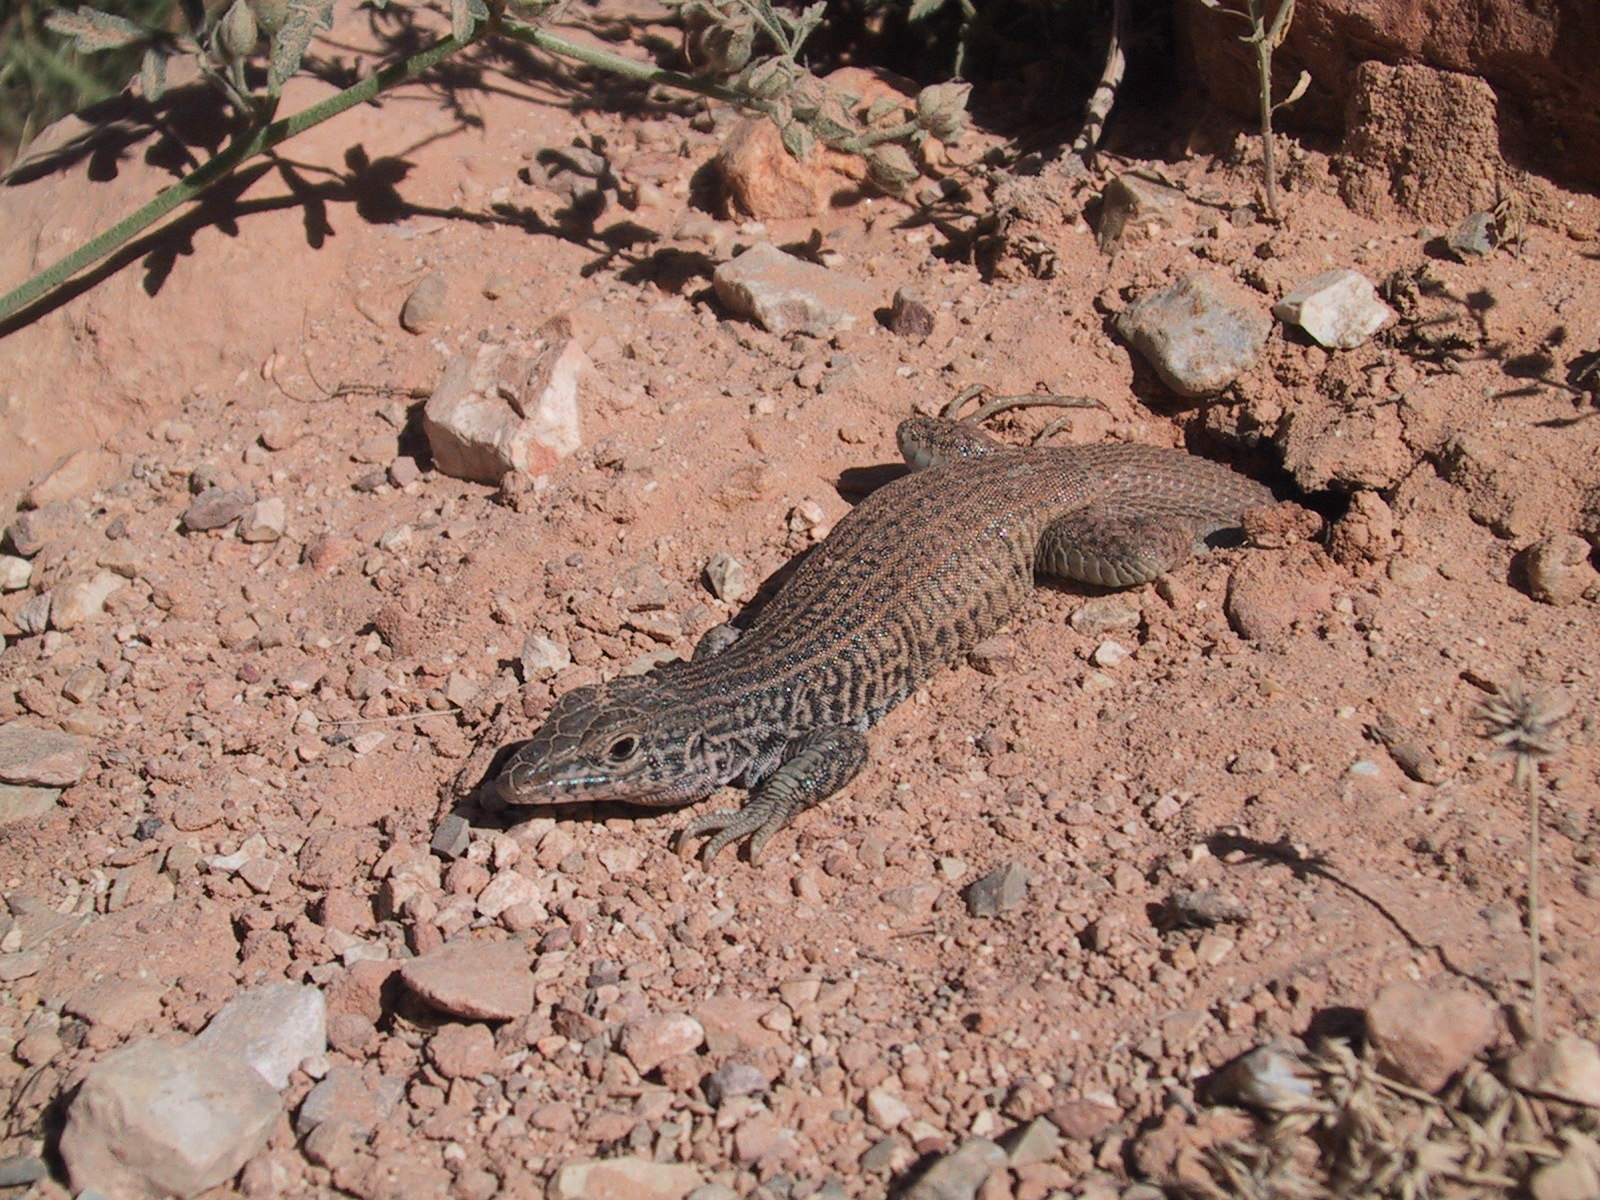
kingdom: Animalia
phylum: Chordata
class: Squamata
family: Teiidae
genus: Aspidoscelis
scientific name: Aspidoscelis tigris
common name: Tiger whiptail
